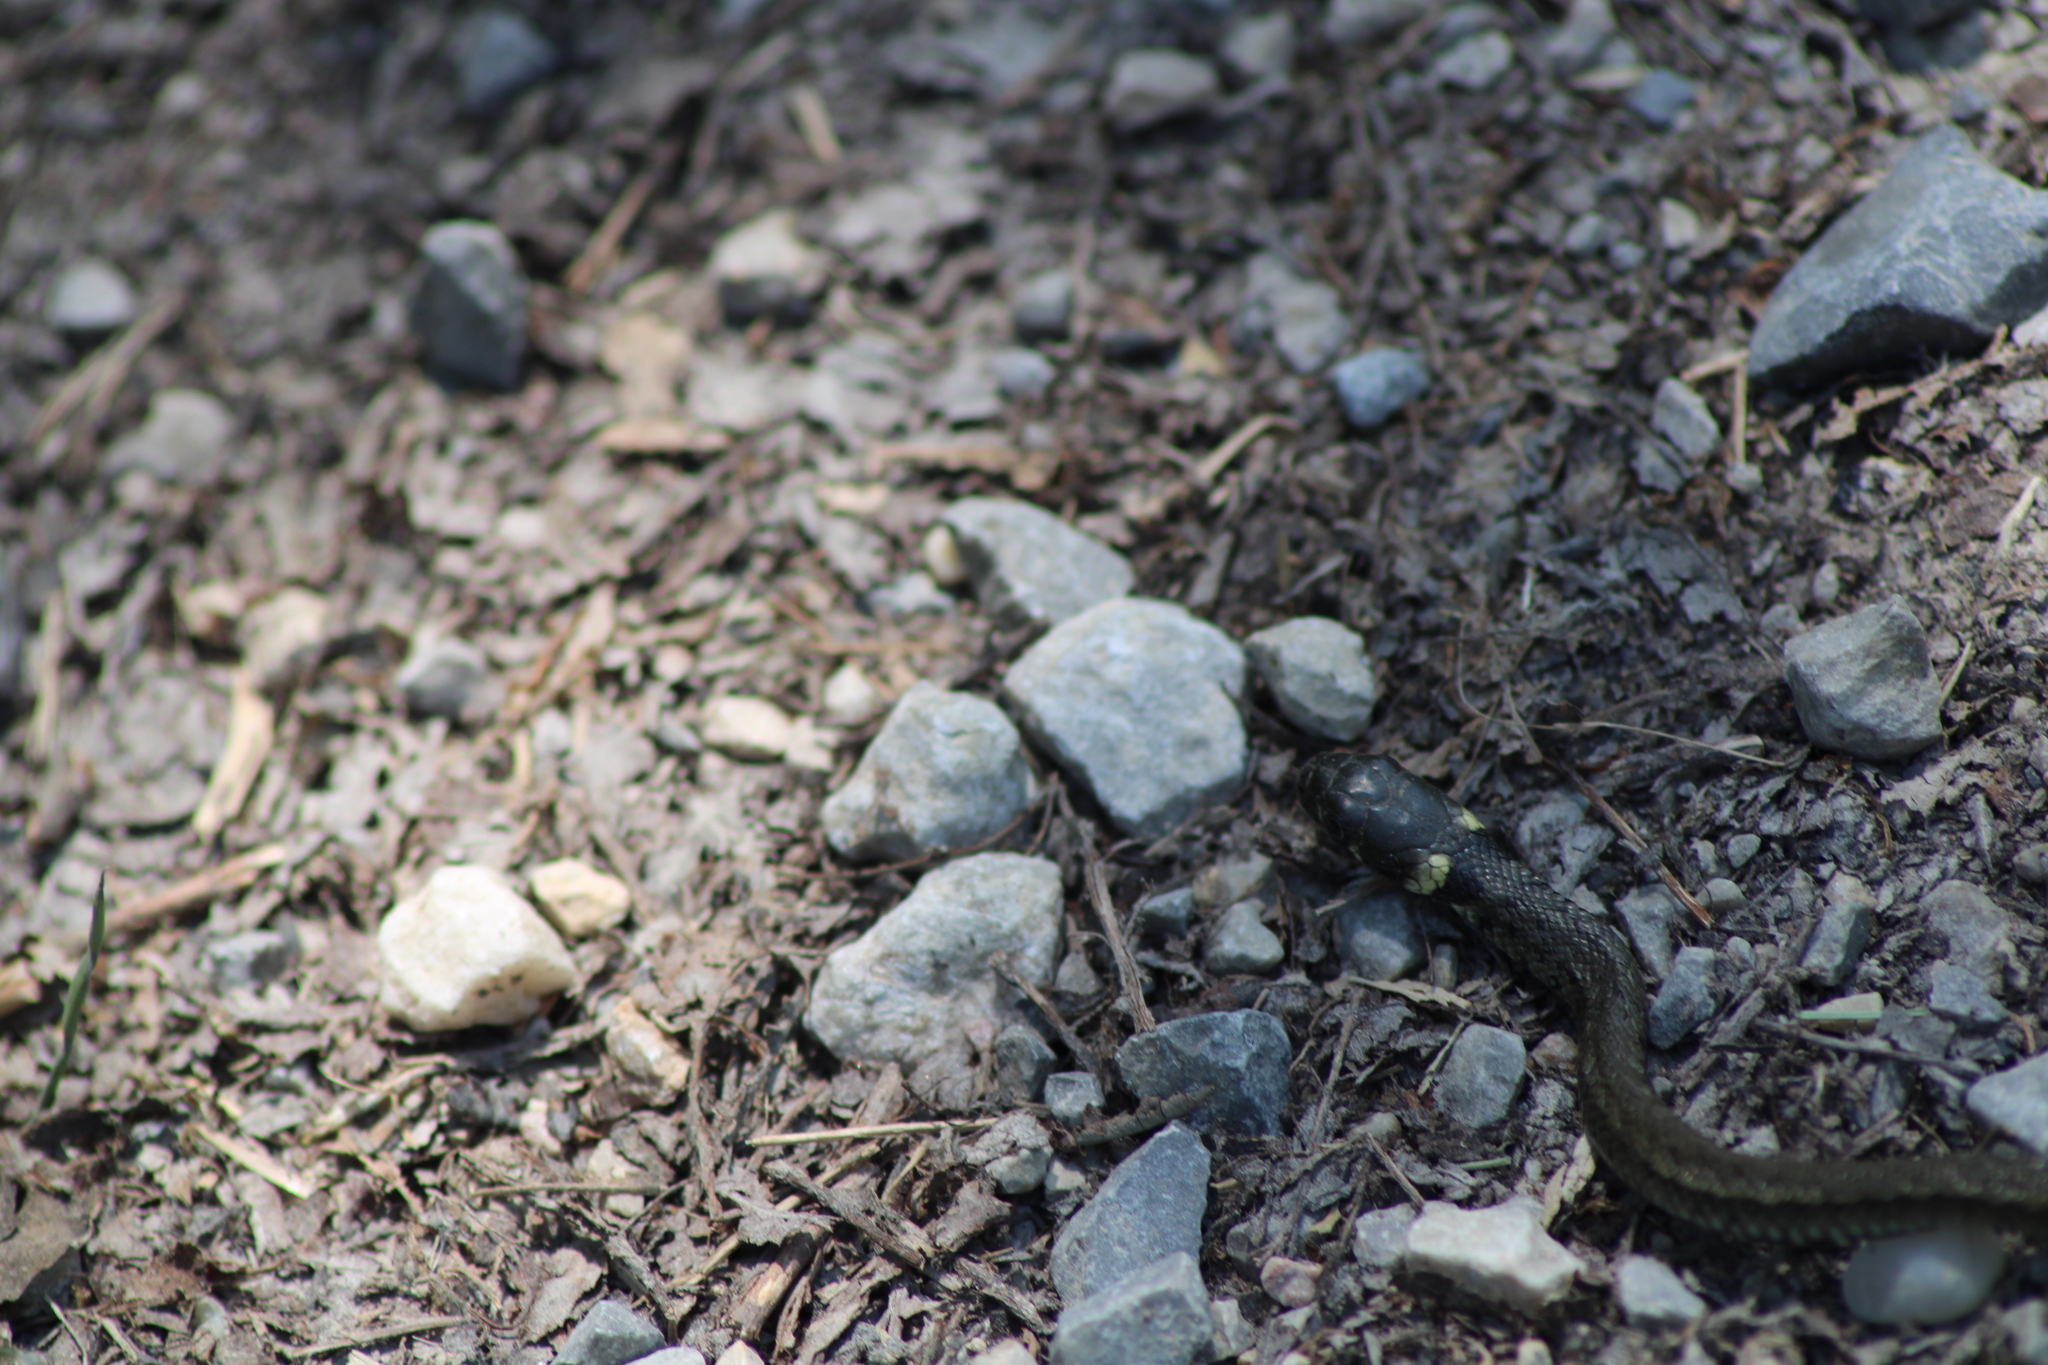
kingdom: Animalia
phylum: Chordata
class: Squamata
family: Colubridae
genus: Natrix
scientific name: Natrix natrix
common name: Grass snake
